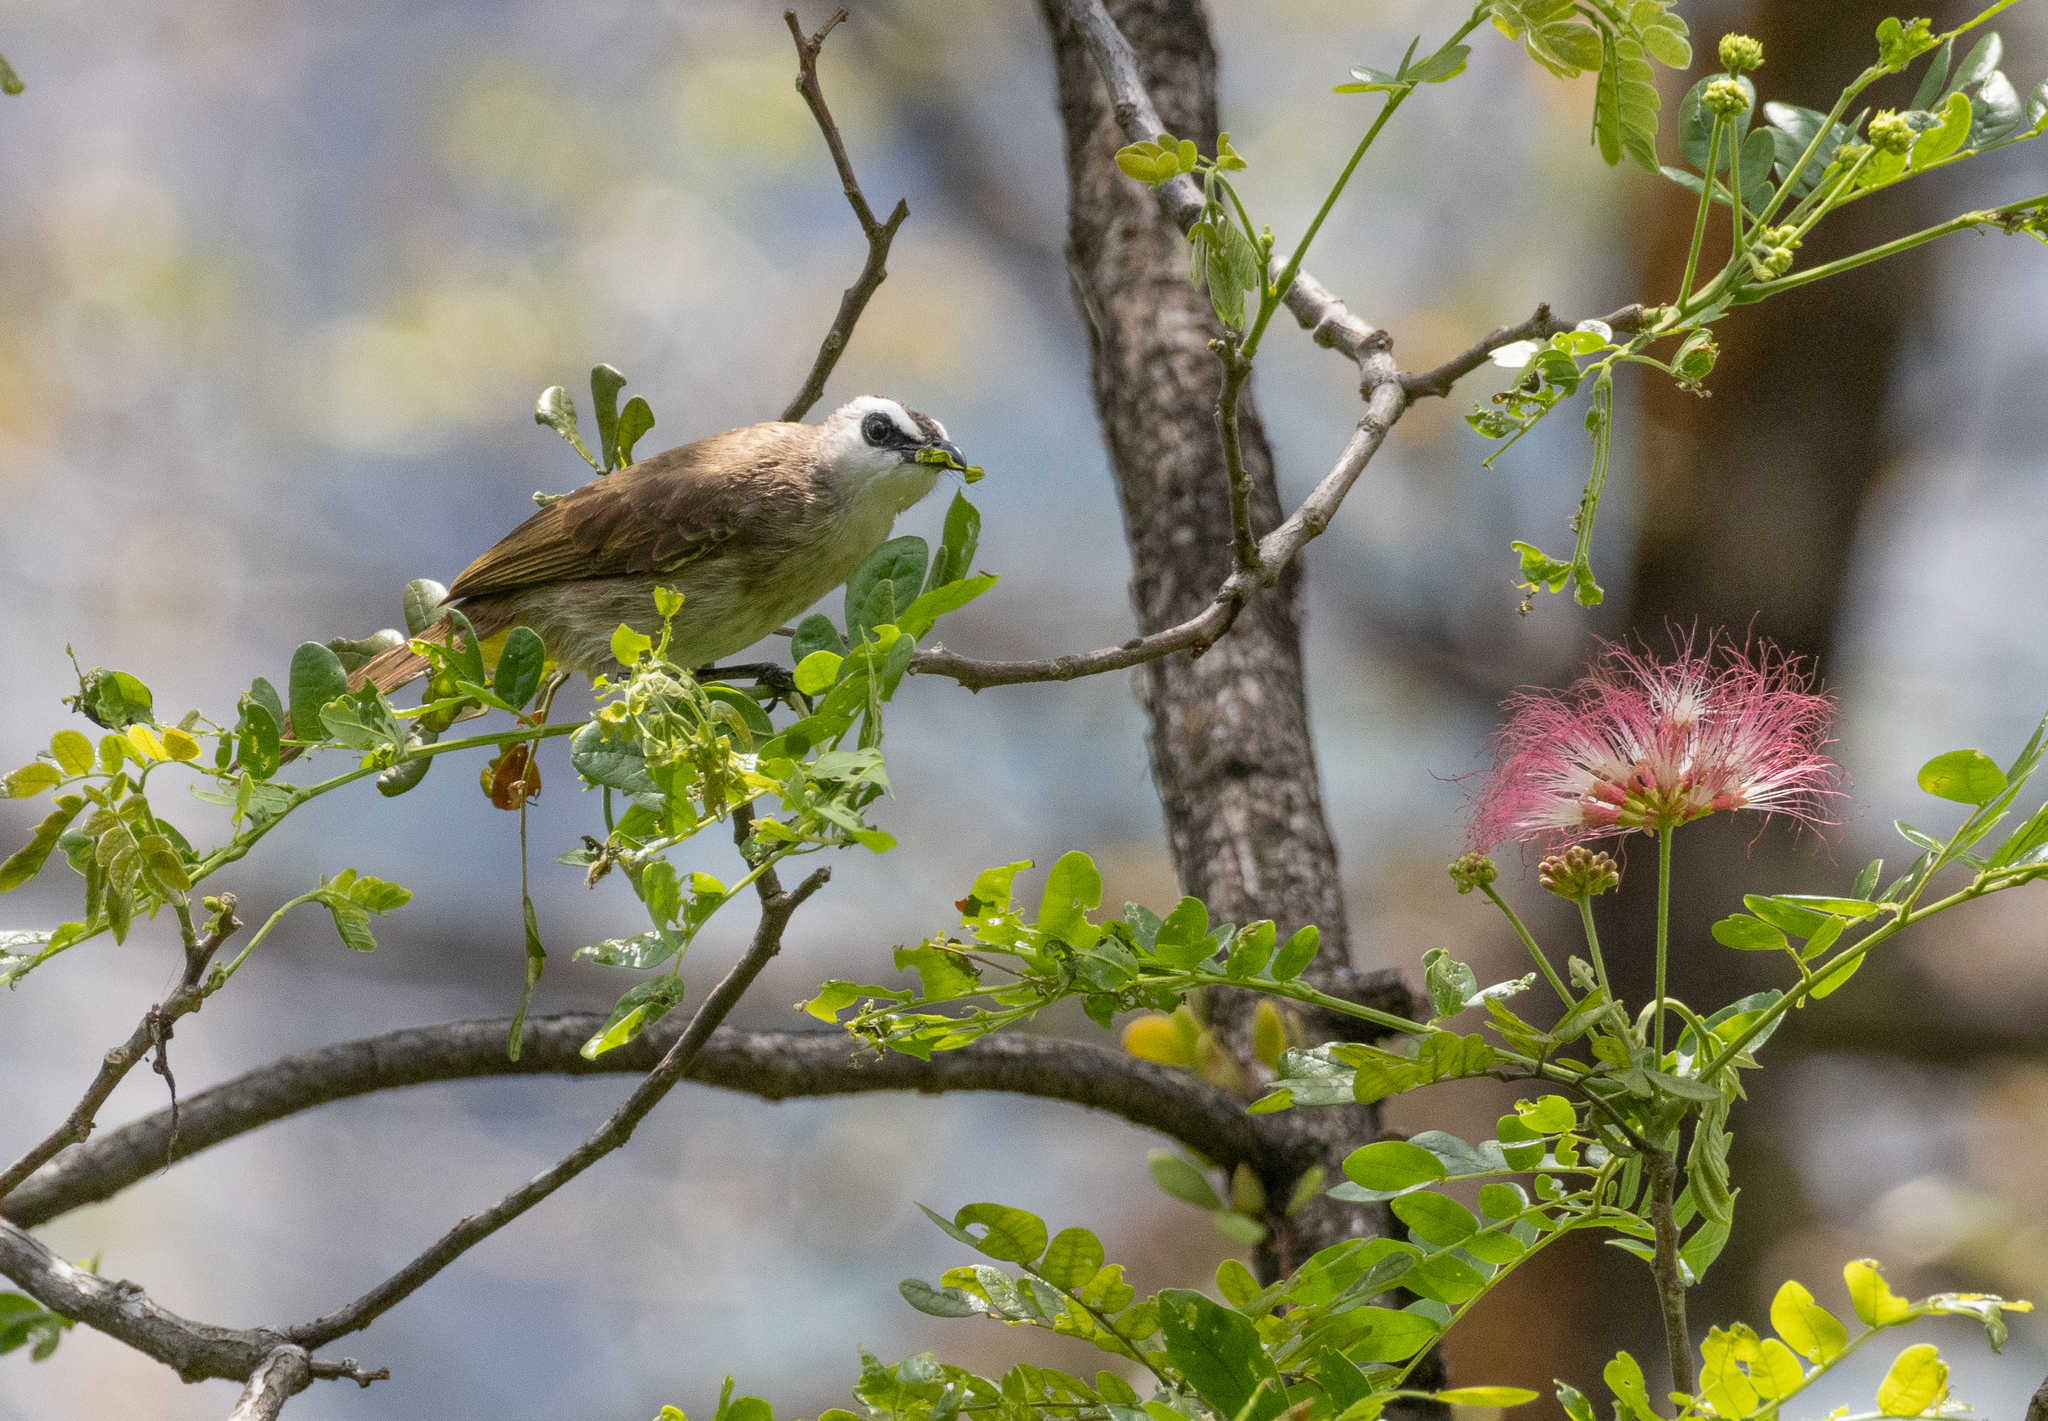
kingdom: Animalia
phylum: Chordata
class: Aves
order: Passeriformes
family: Pycnonotidae
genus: Pycnonotus
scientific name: Pycnonotus goiavier
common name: Yellow-vented bulbul
